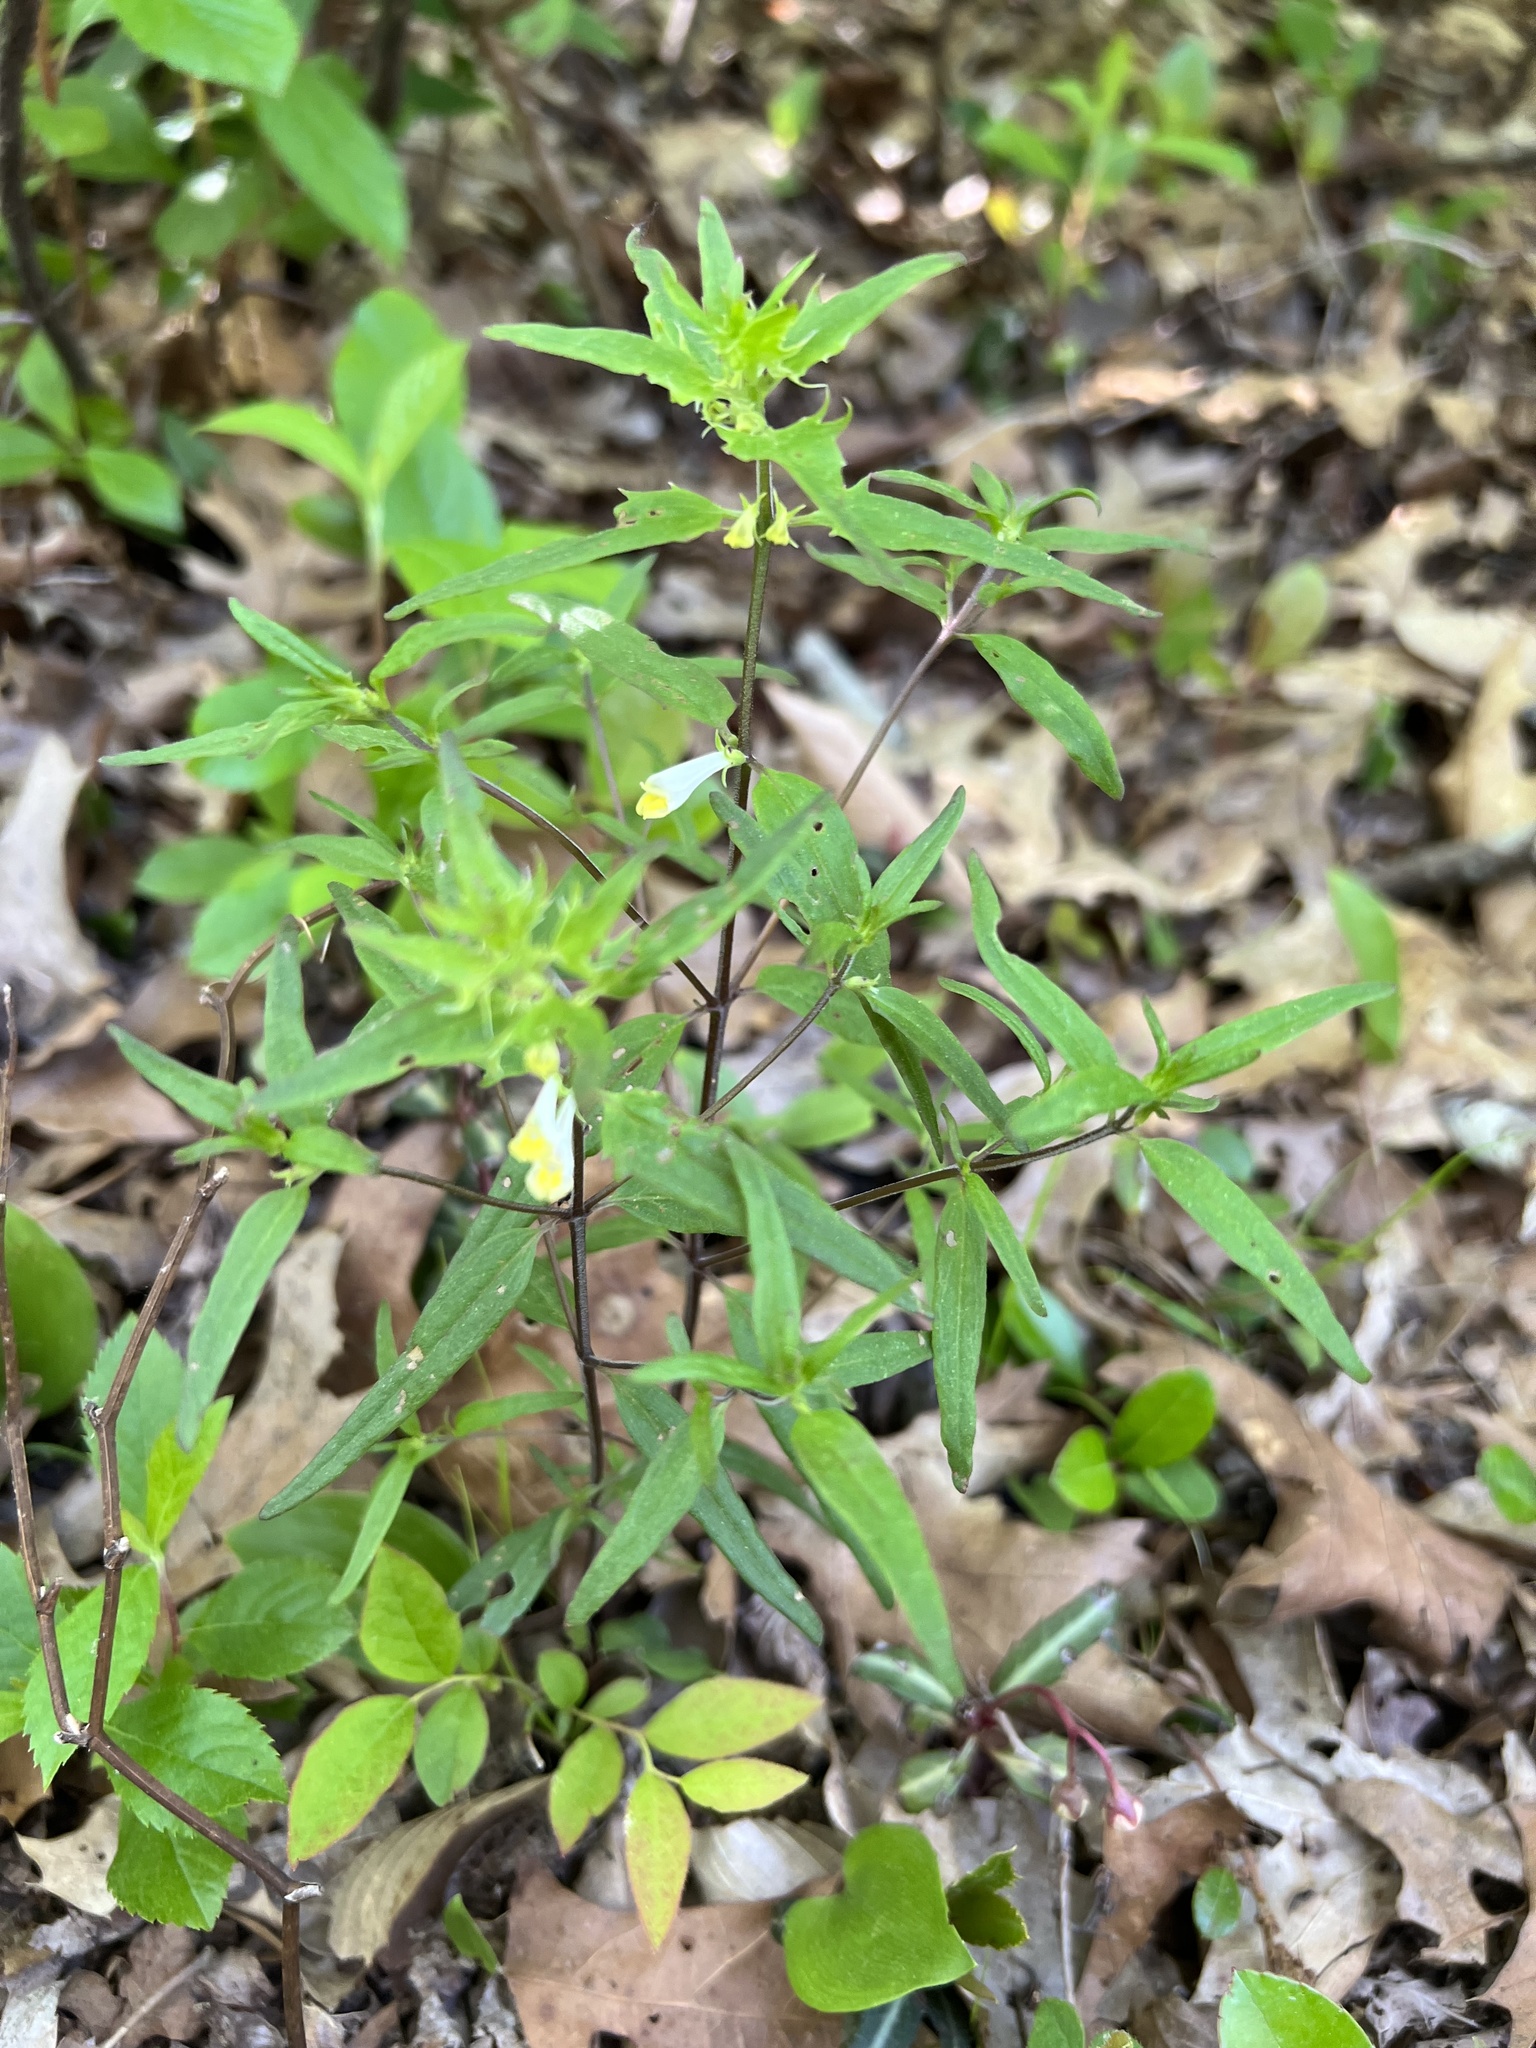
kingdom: Plantae
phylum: Tracheophyta
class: Magnoliopsida
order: Lamiales
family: Orobanchaceae
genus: Melampyrum
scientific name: Melampyrum lineare
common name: American cow-wheat
